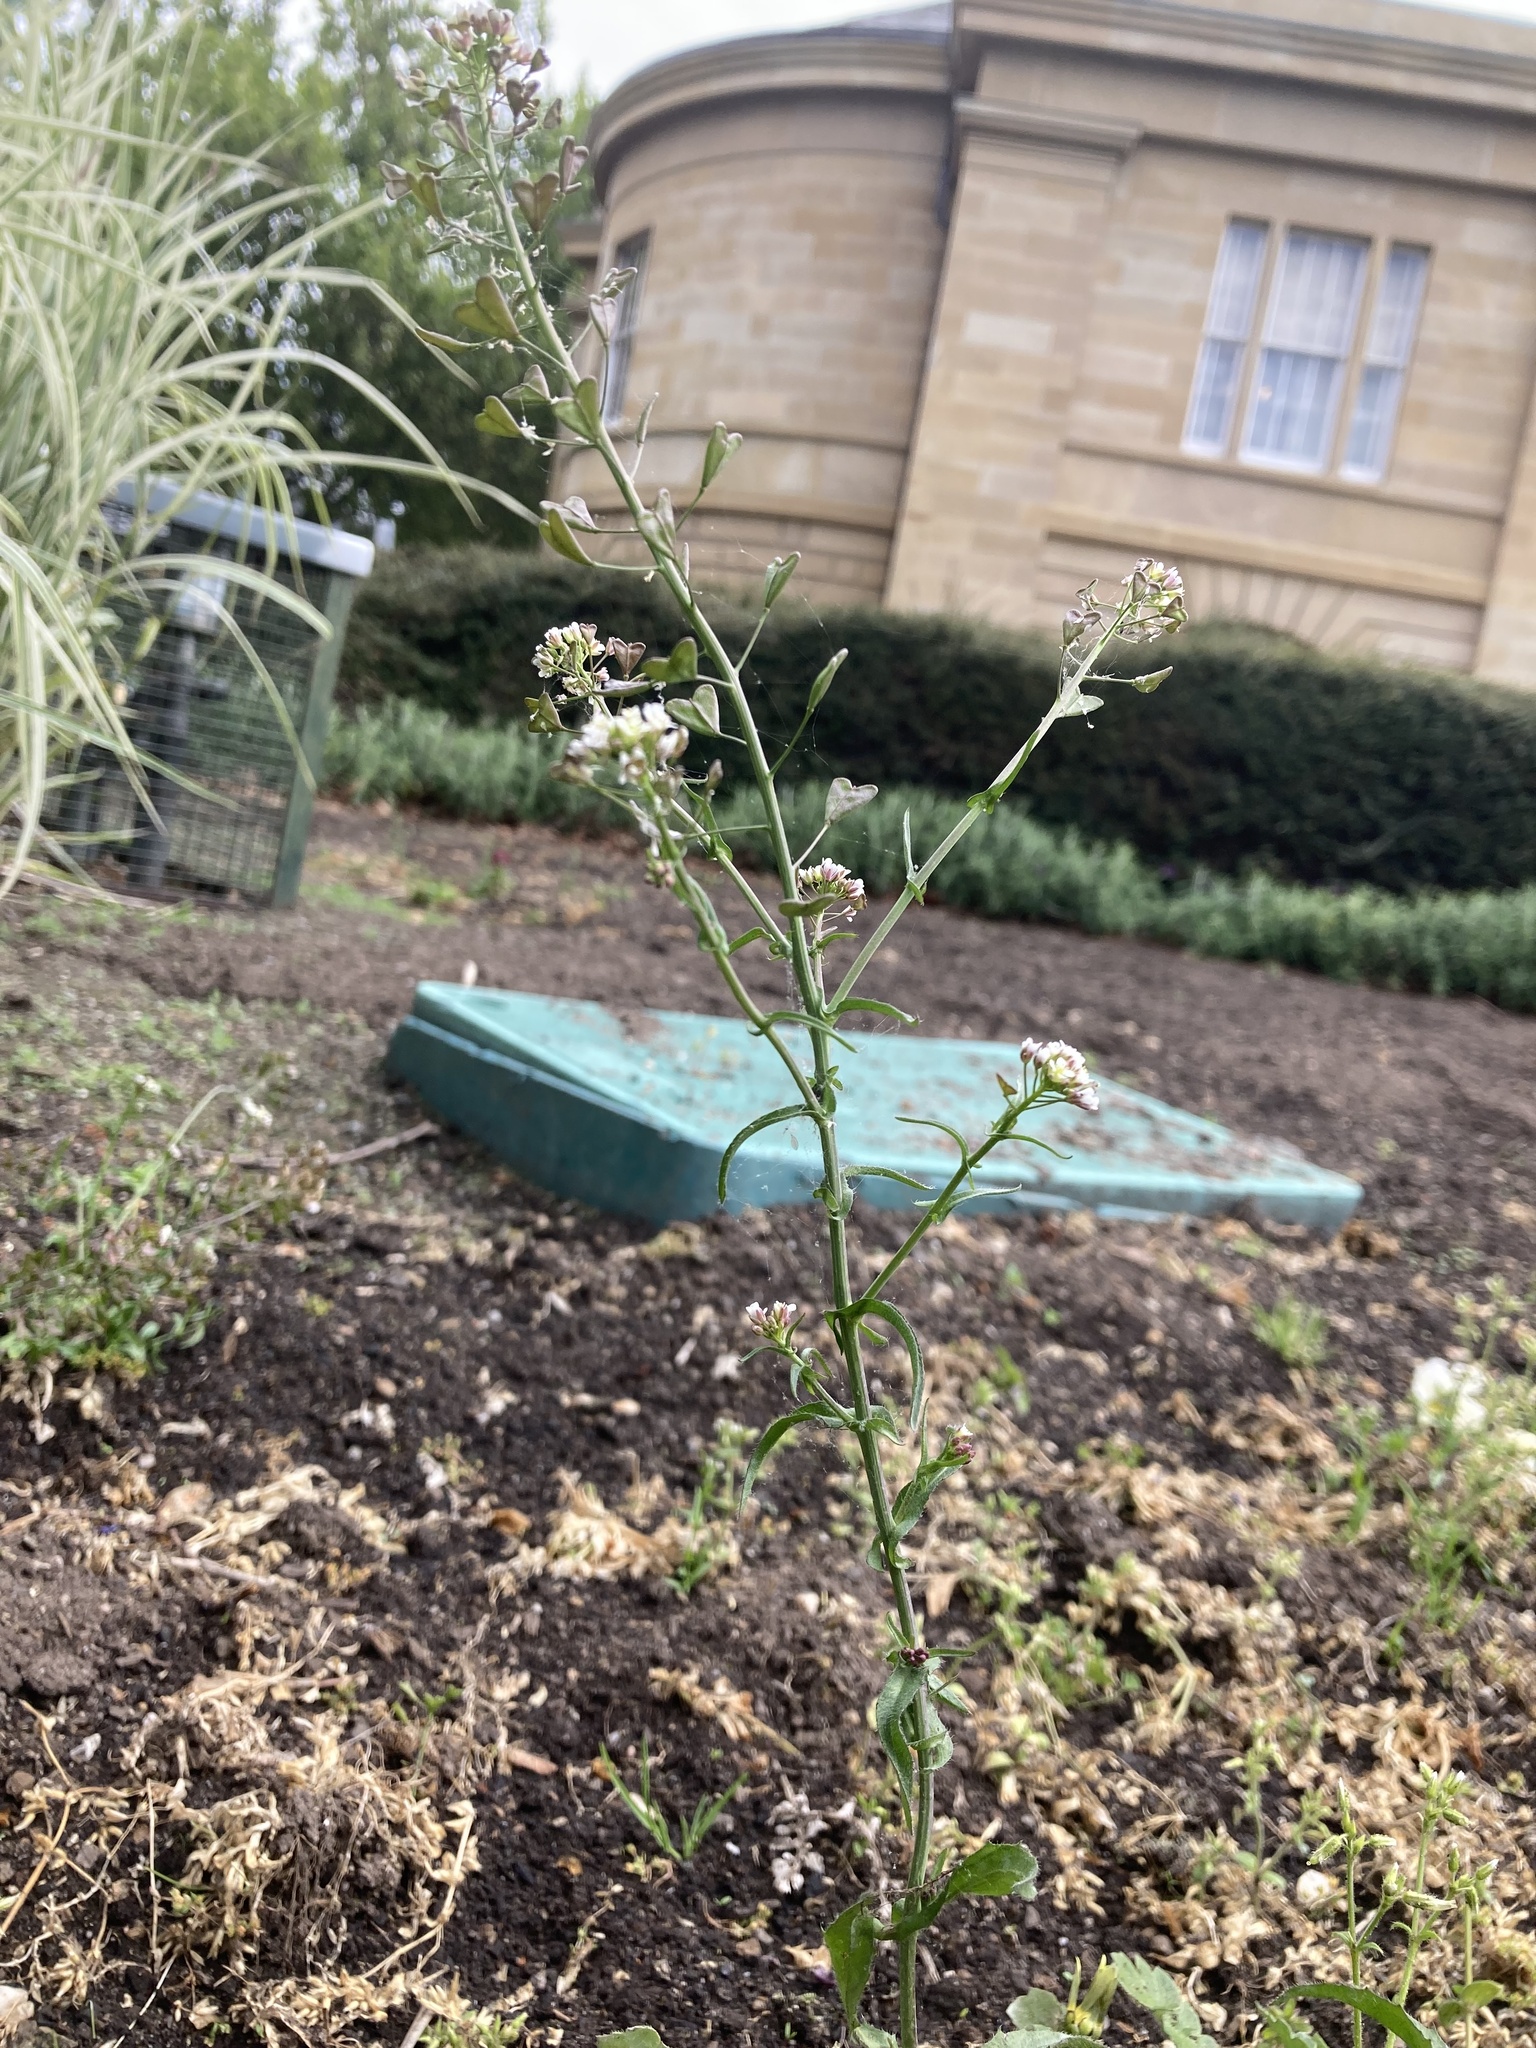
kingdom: Plantae
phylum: Tracheophyta
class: Magnoliopsida
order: Brassicales
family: Brassicaceae
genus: Capsella
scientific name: Capsella bursa-pastoris
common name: Shepherd's purse
